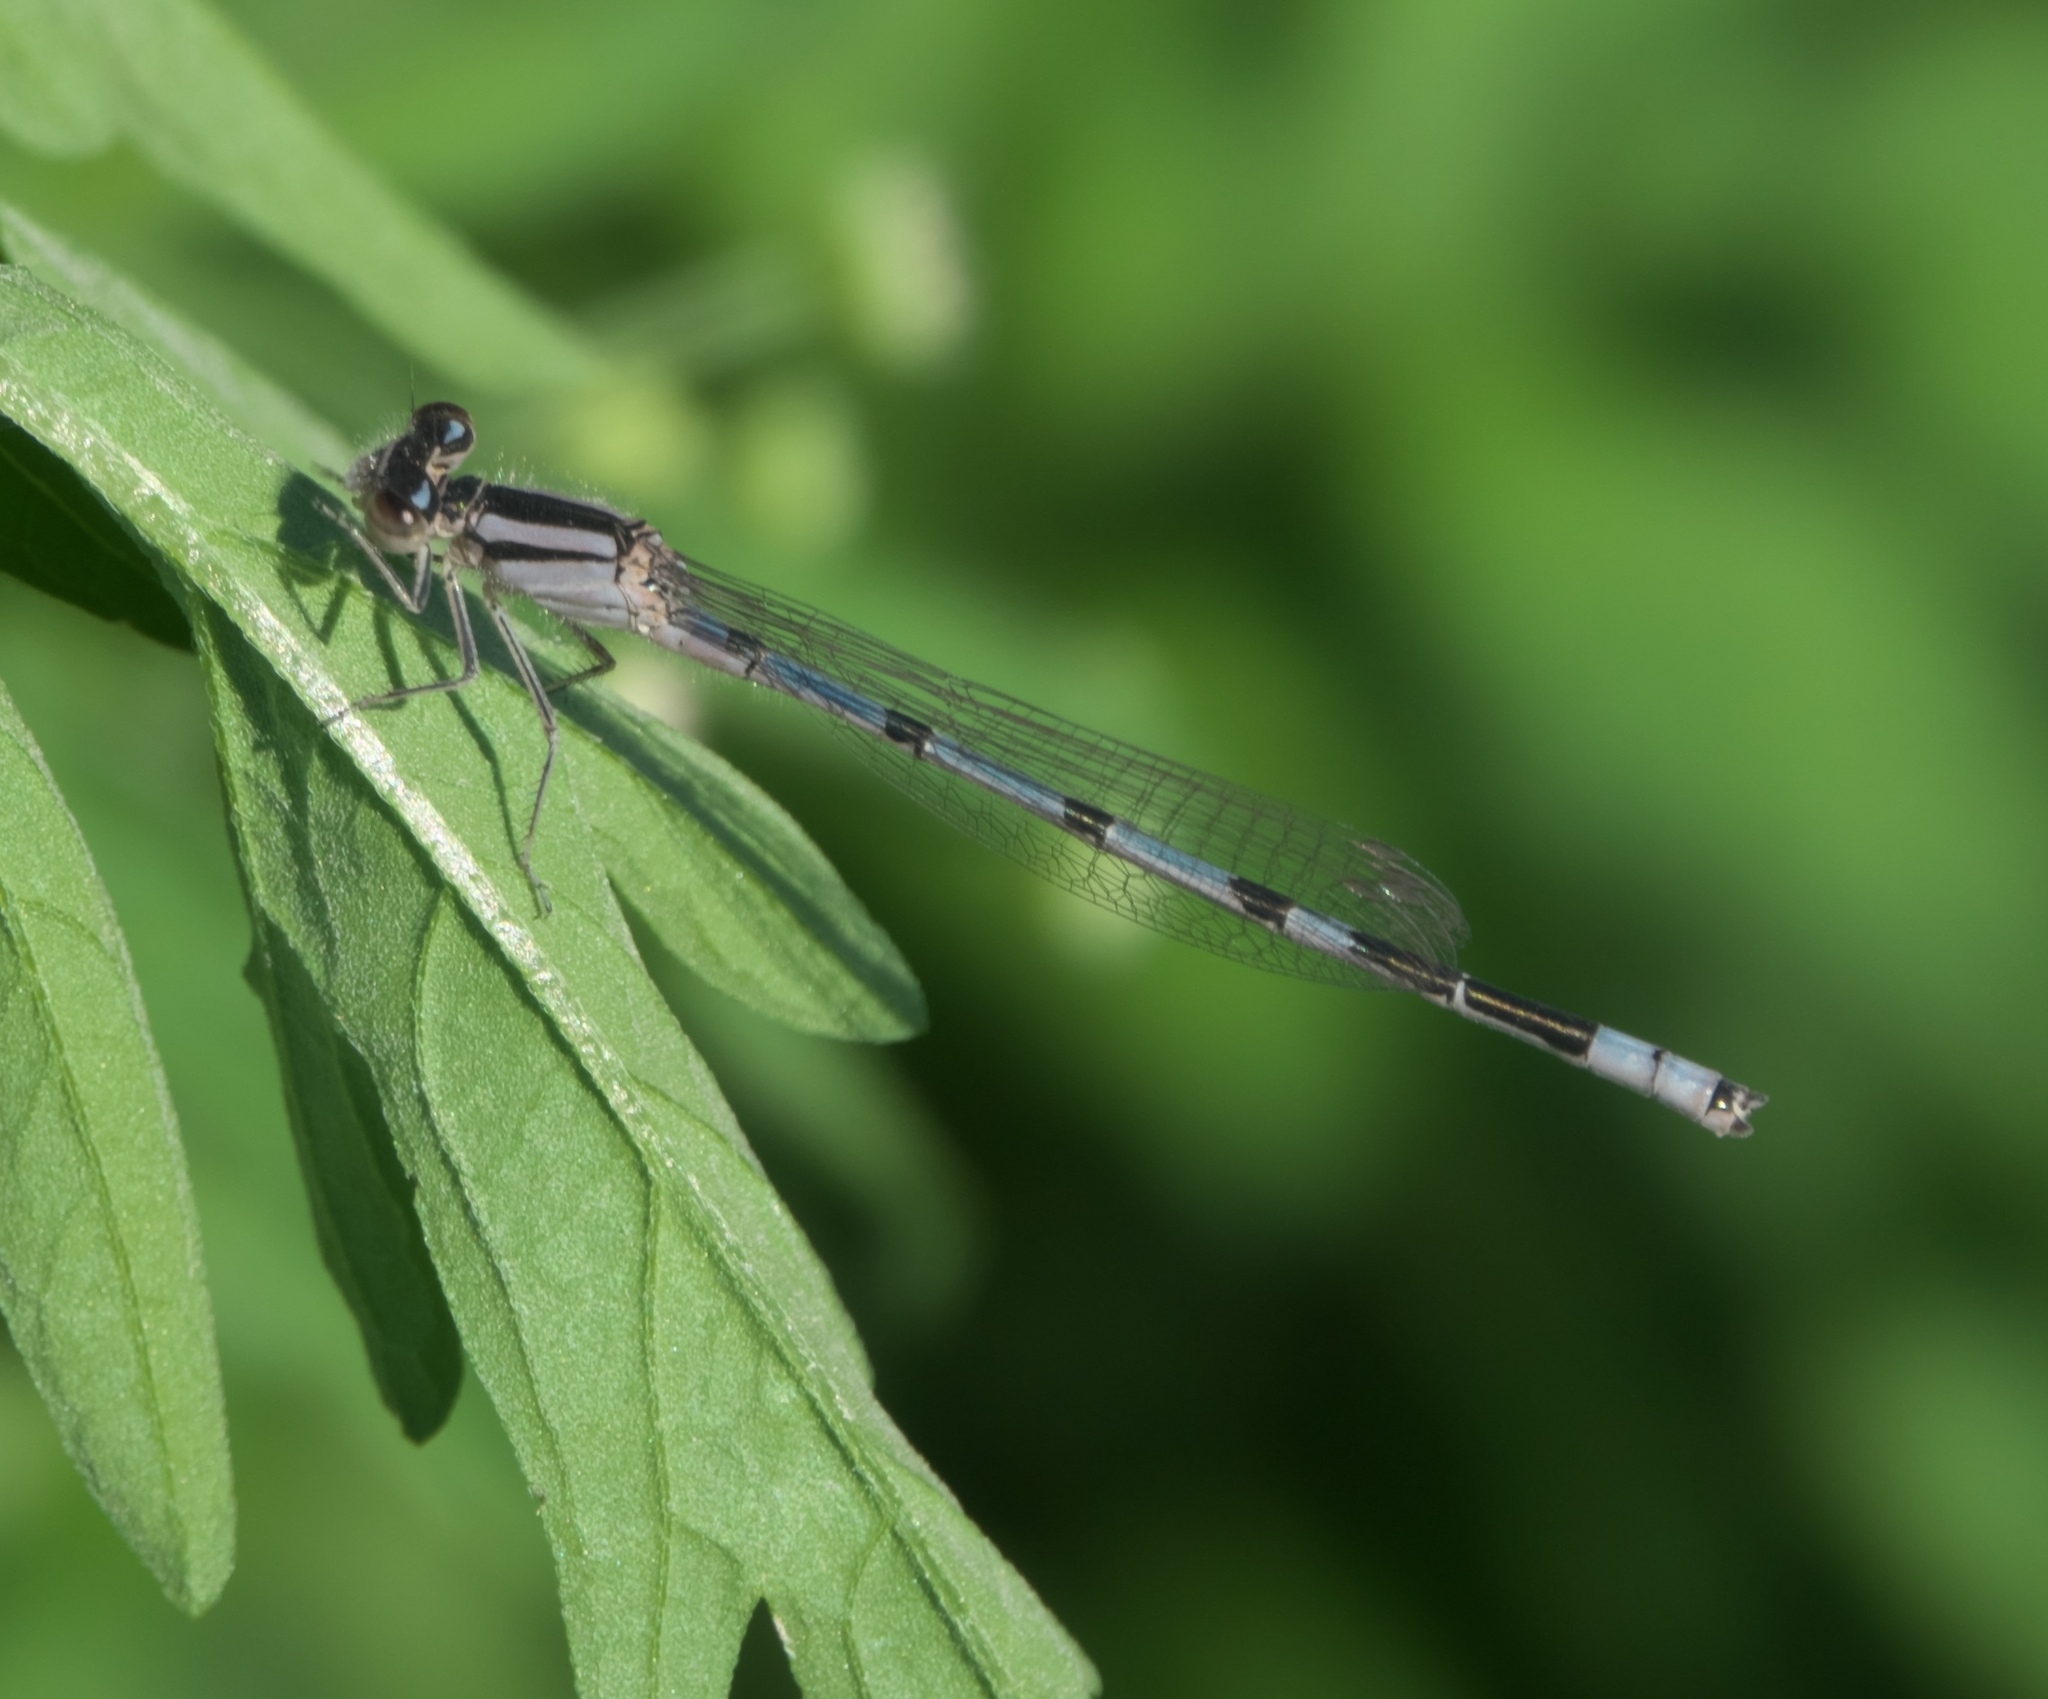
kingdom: Animalia
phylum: Arthropoda
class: Insecta
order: Odonata
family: Coenagrionidae
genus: Enallagma
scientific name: Enallagma civile
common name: Damselfly
